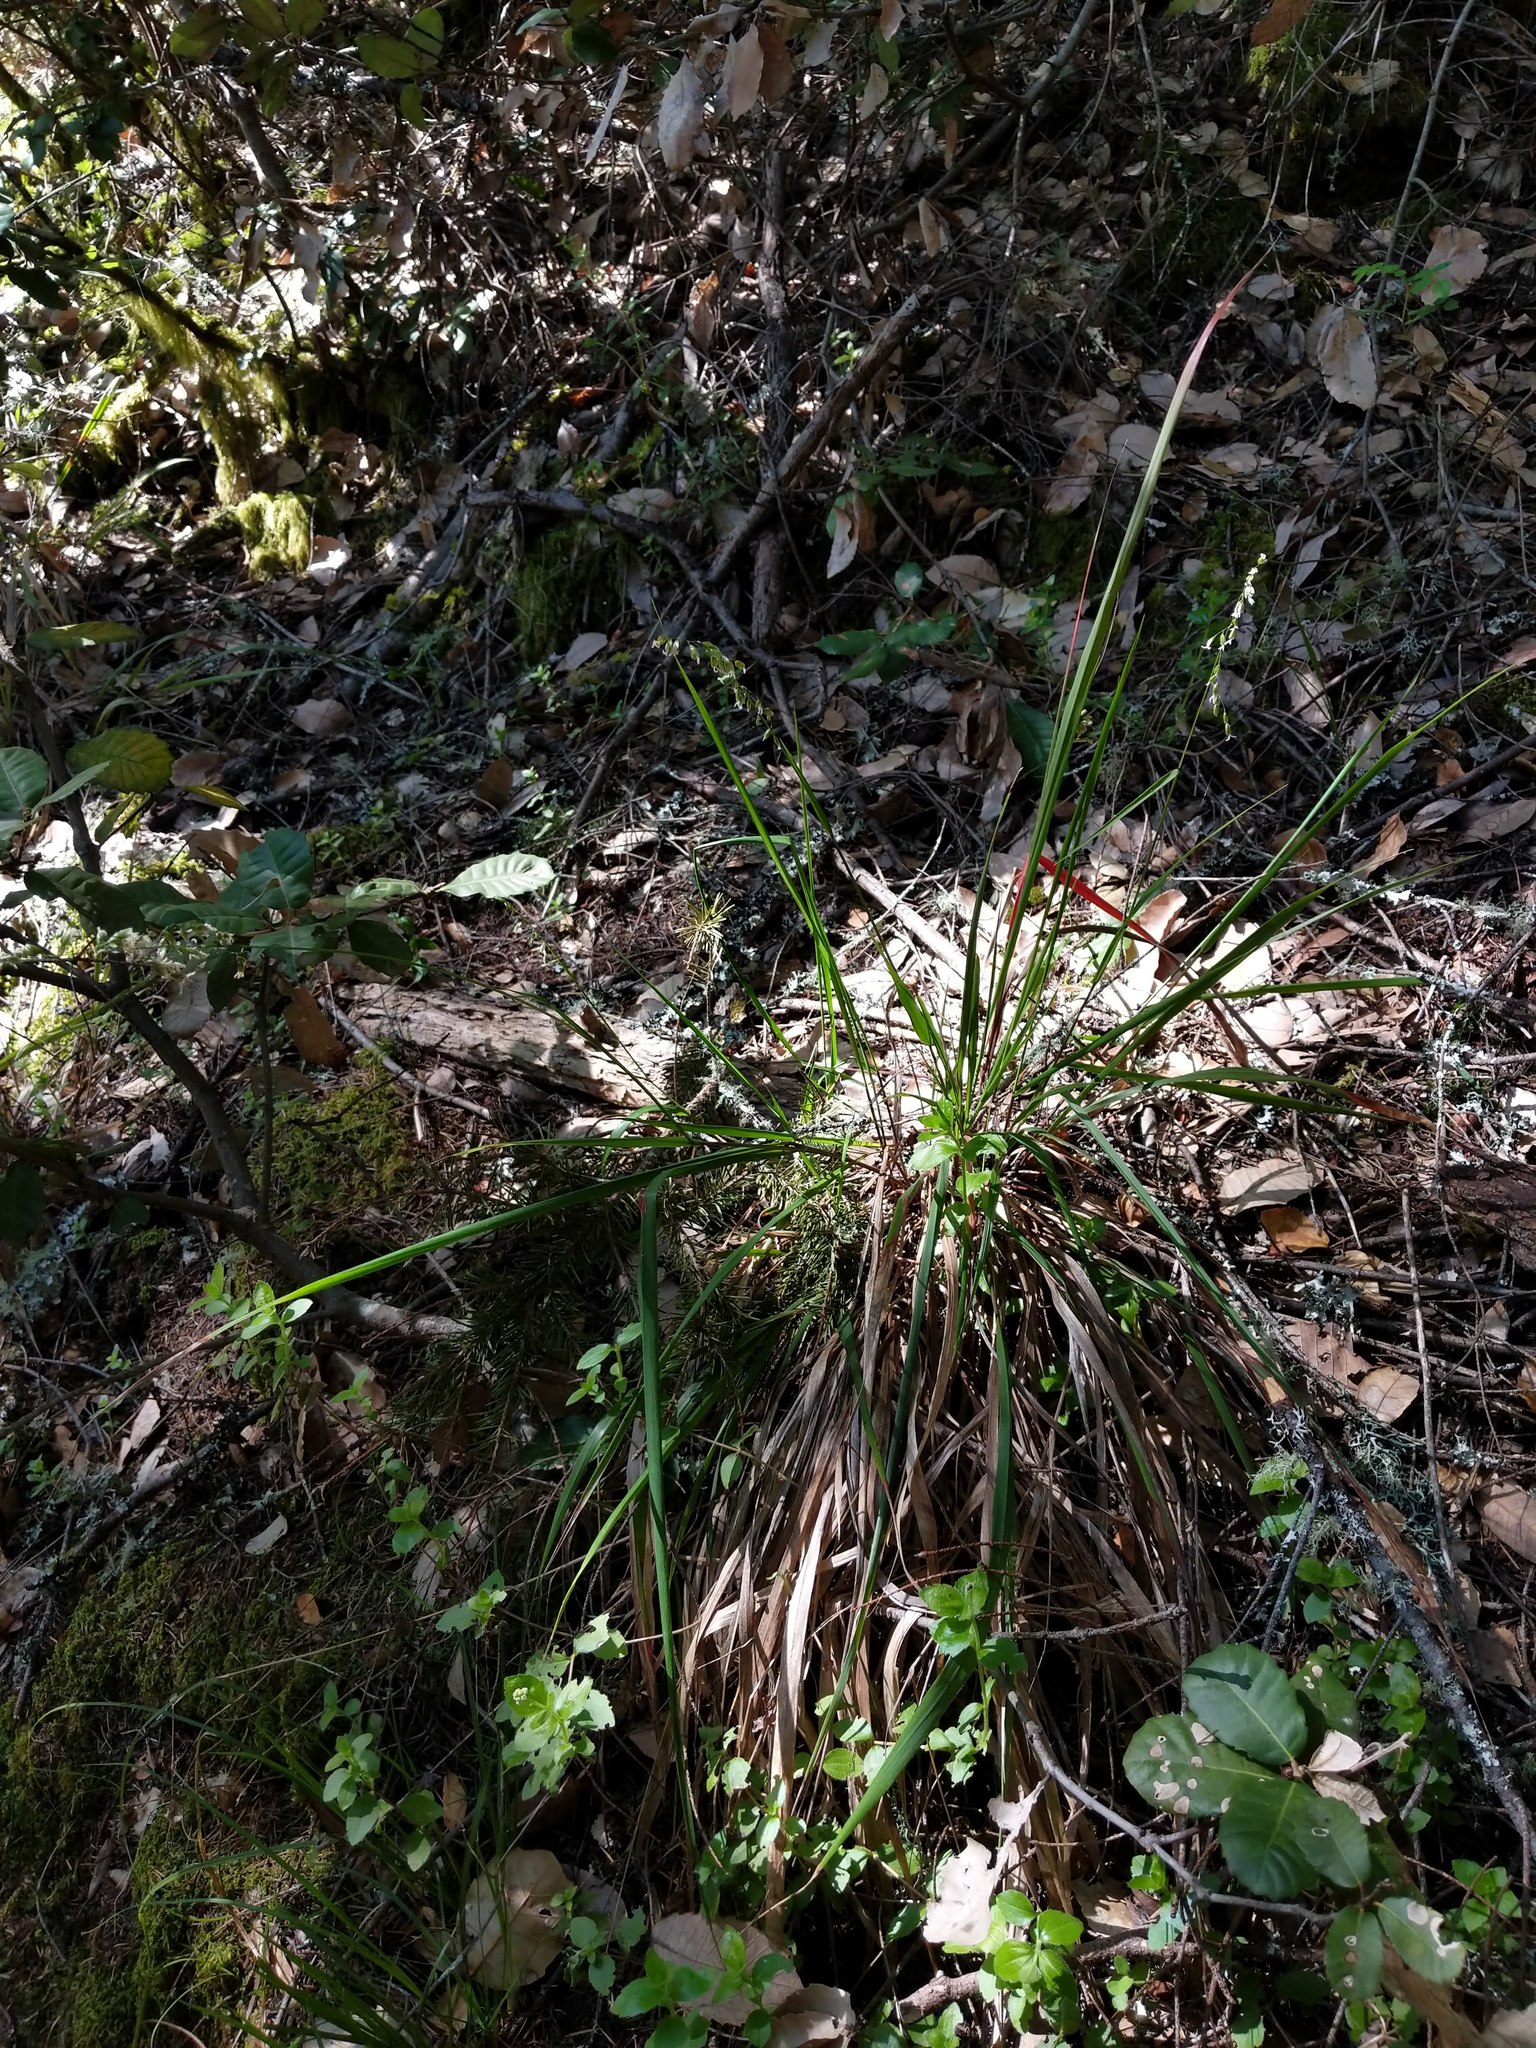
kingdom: Plantae
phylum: Tracheophyta
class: Liliopsida
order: Poales
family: Poaceae
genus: Anthoxanthum
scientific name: Anthoxanthum occidentale
